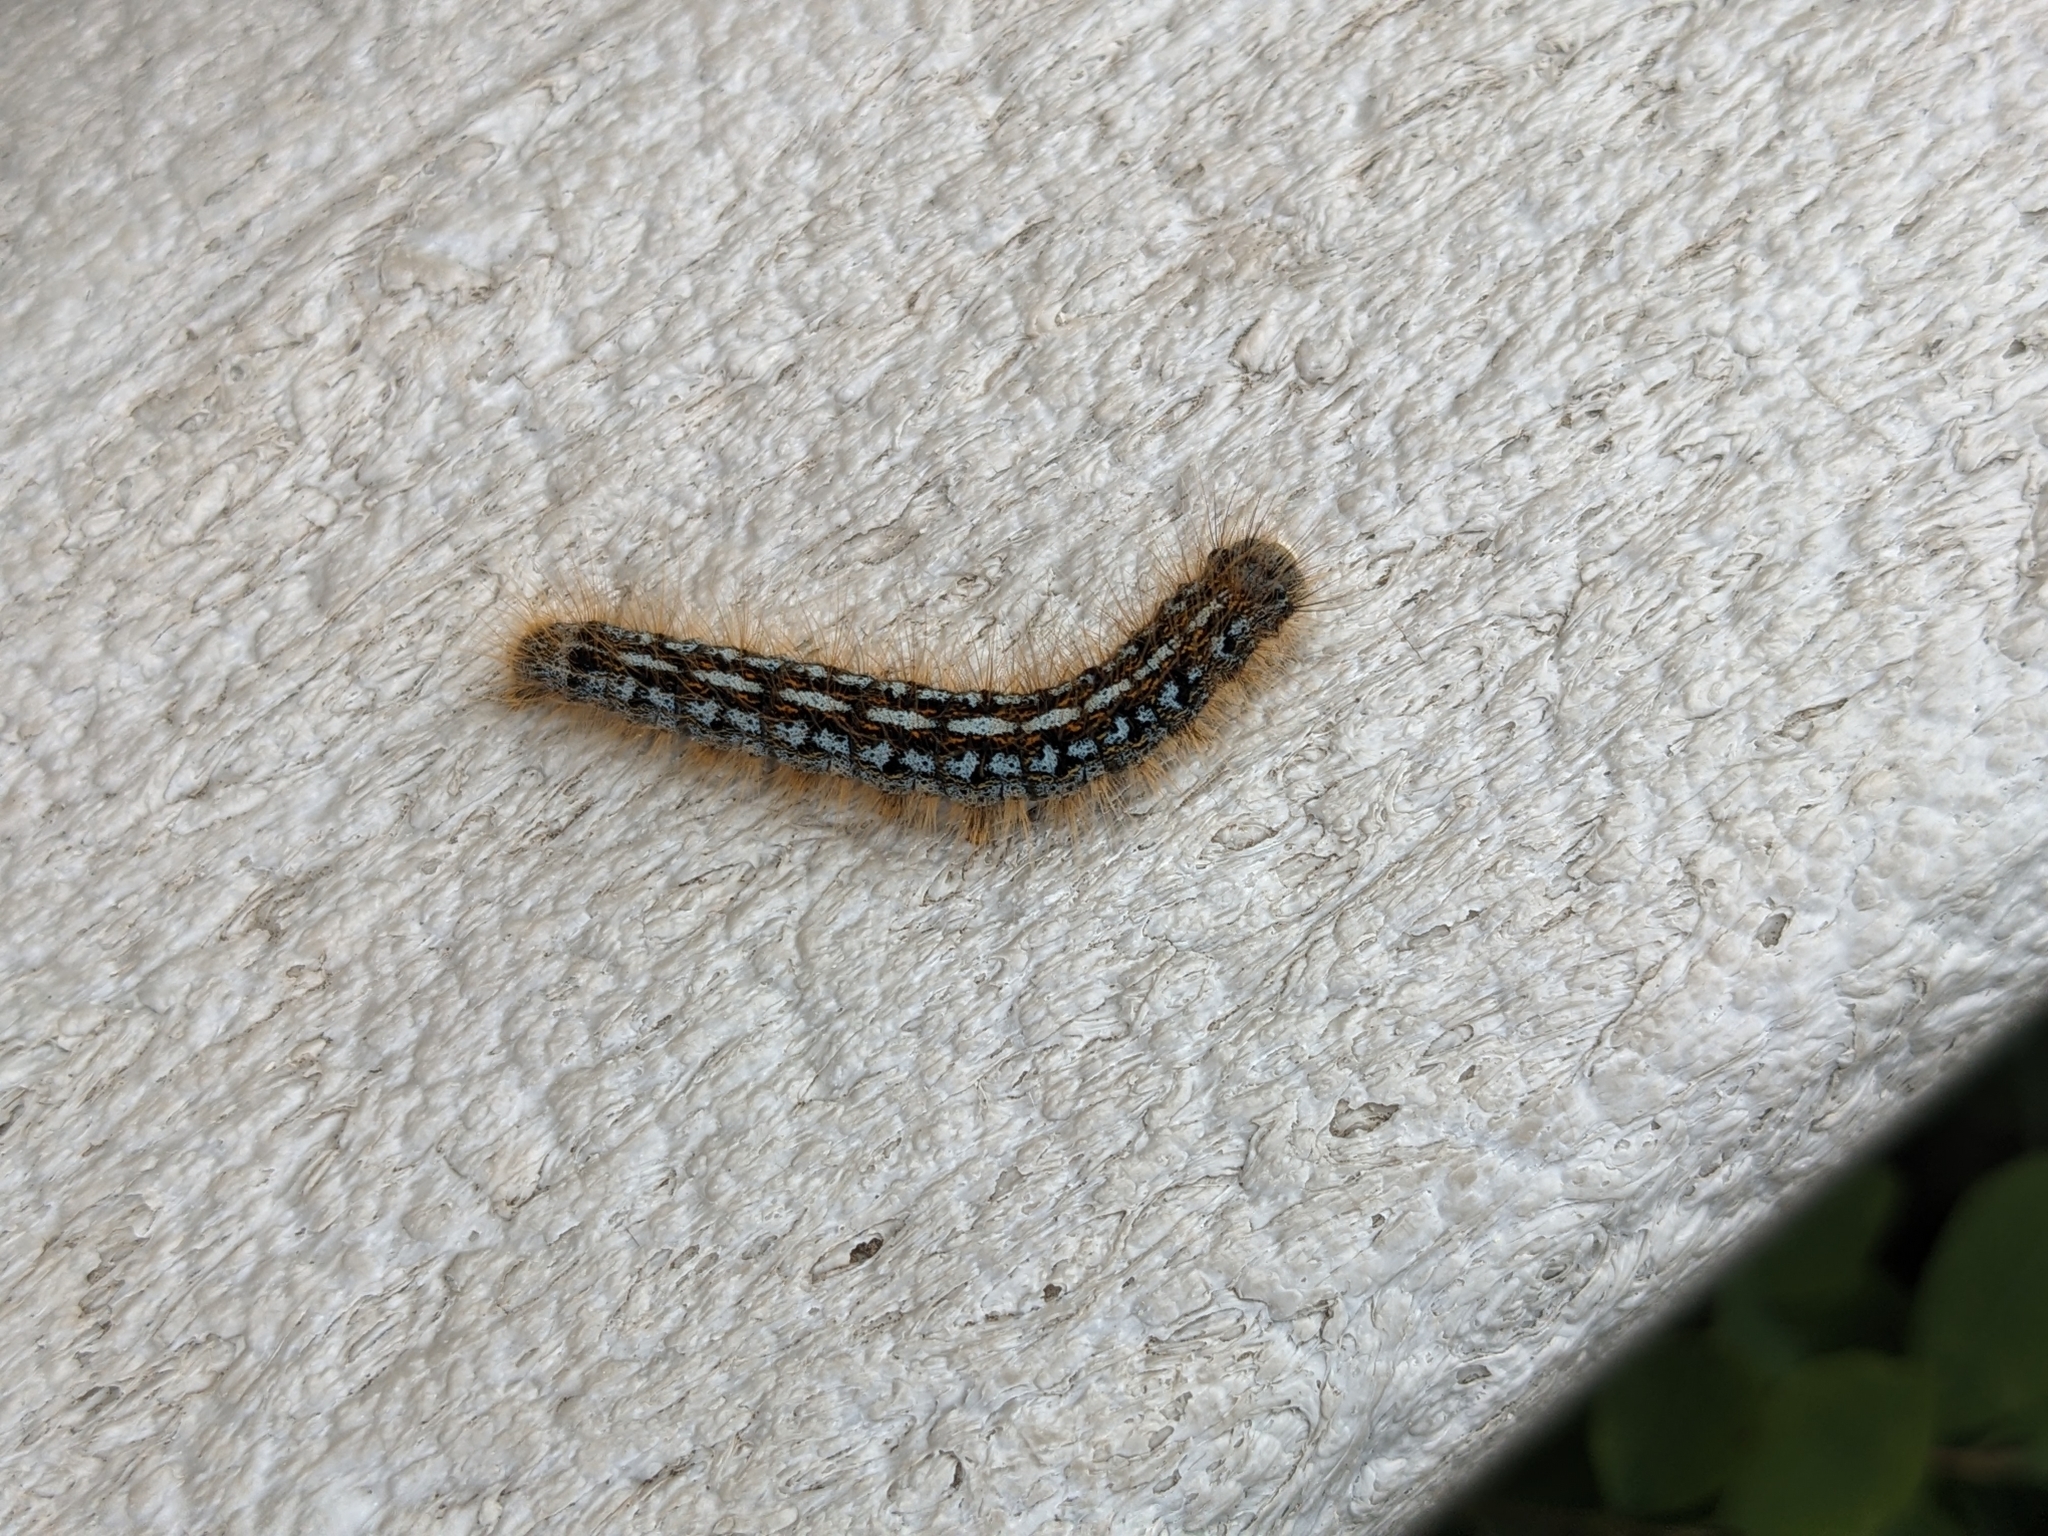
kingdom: Animalia
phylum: Arthropoda
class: Insecta
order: Lepidoptera
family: Lasiocampidae
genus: Malacosoma
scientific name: Malacosoma californica
